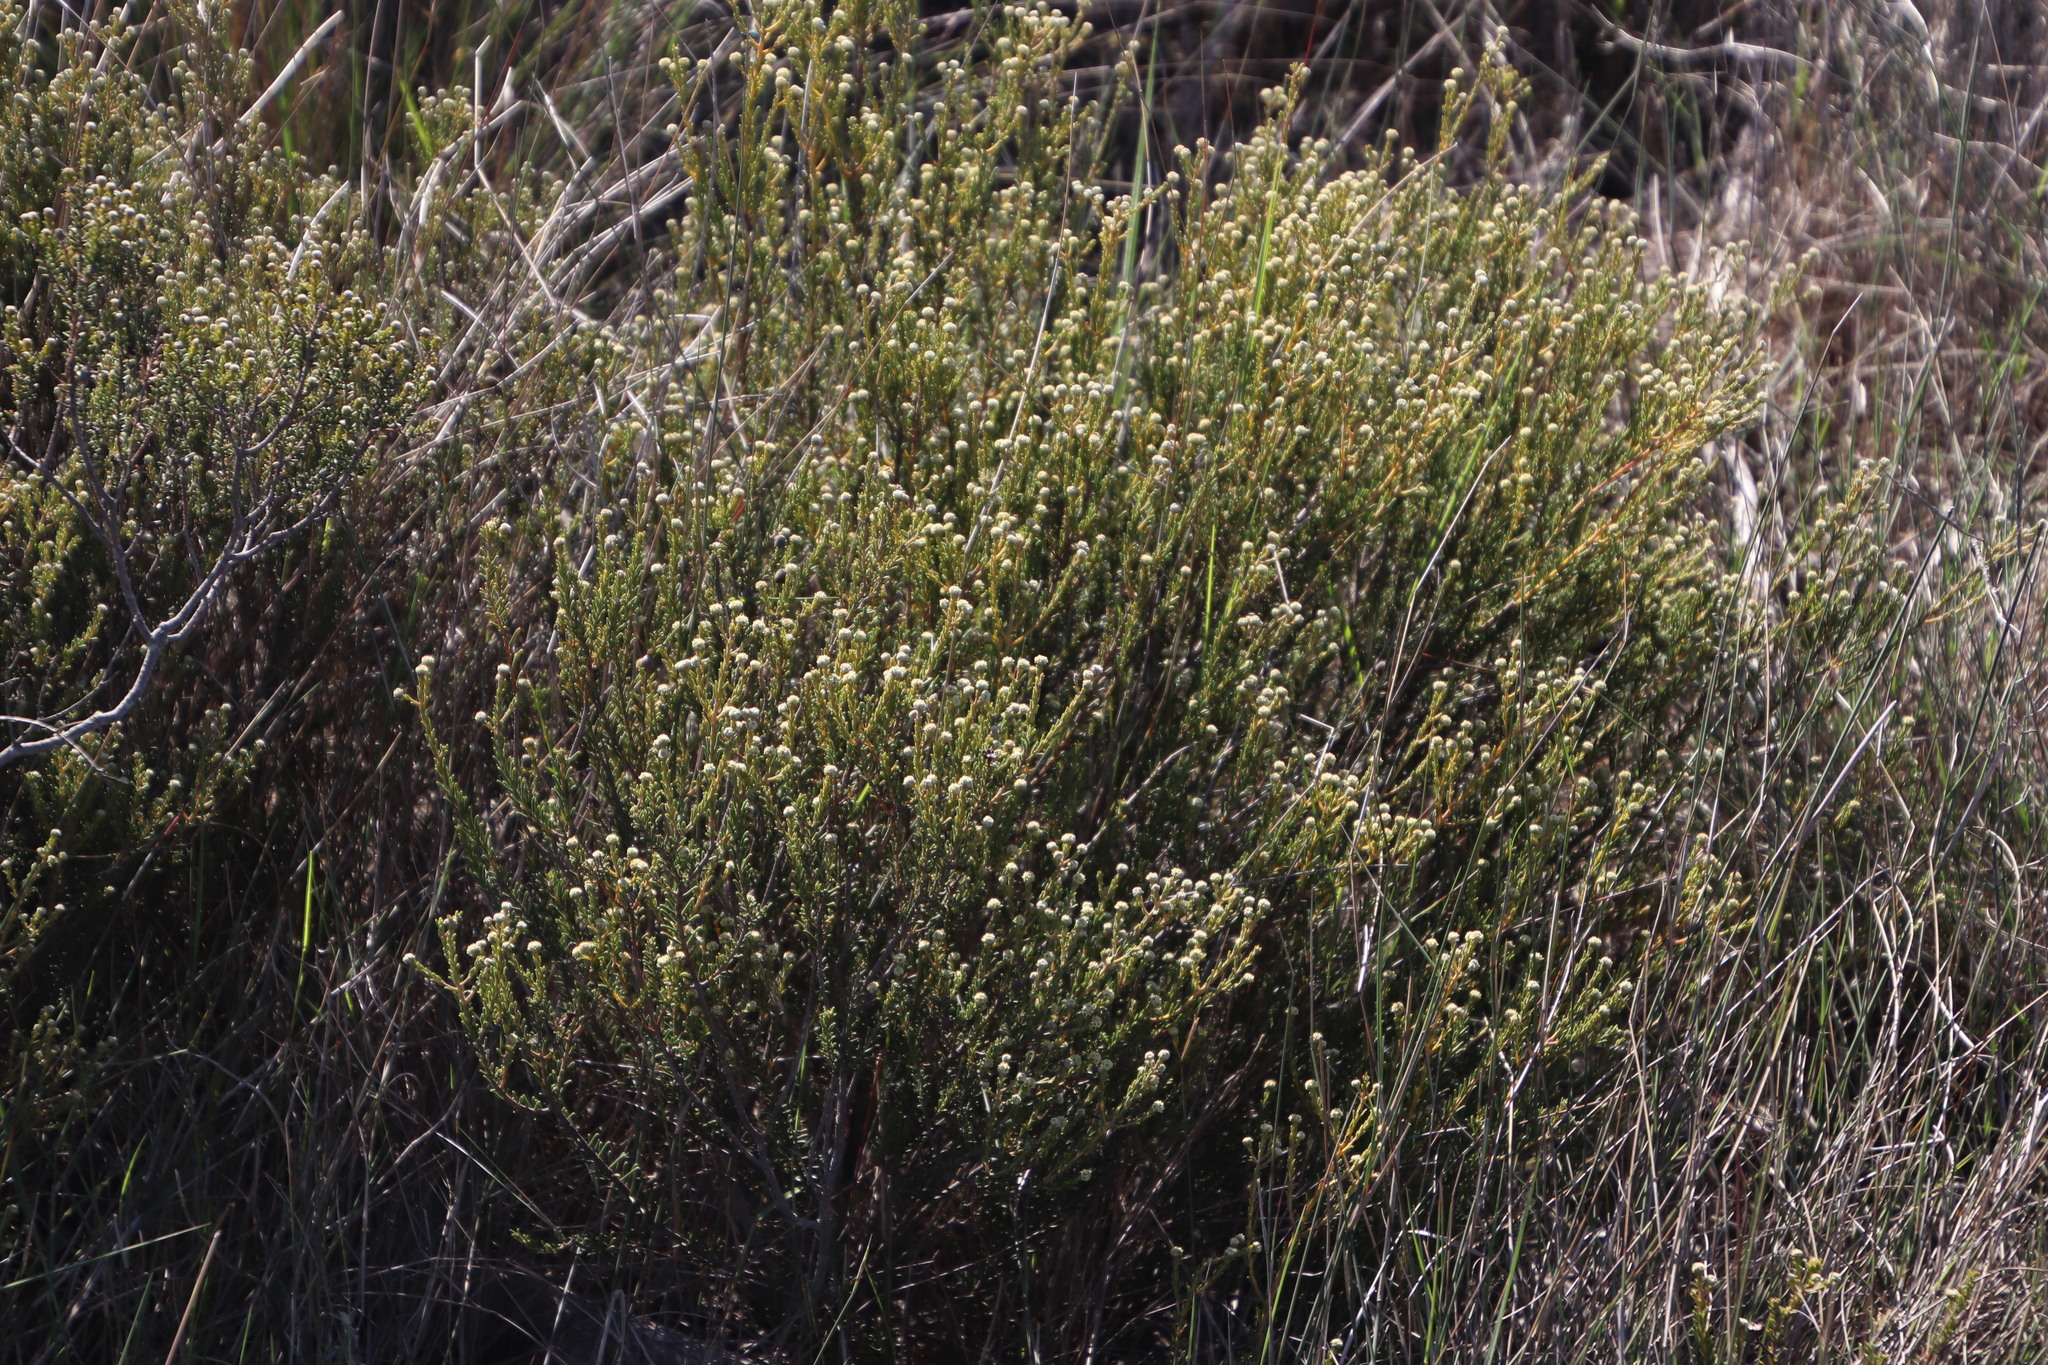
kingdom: Plantae
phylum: Tracheophyta
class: Magnoliopsida
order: Rosales
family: Rhamnaceae
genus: Phylica
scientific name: Phylica cephalantha
